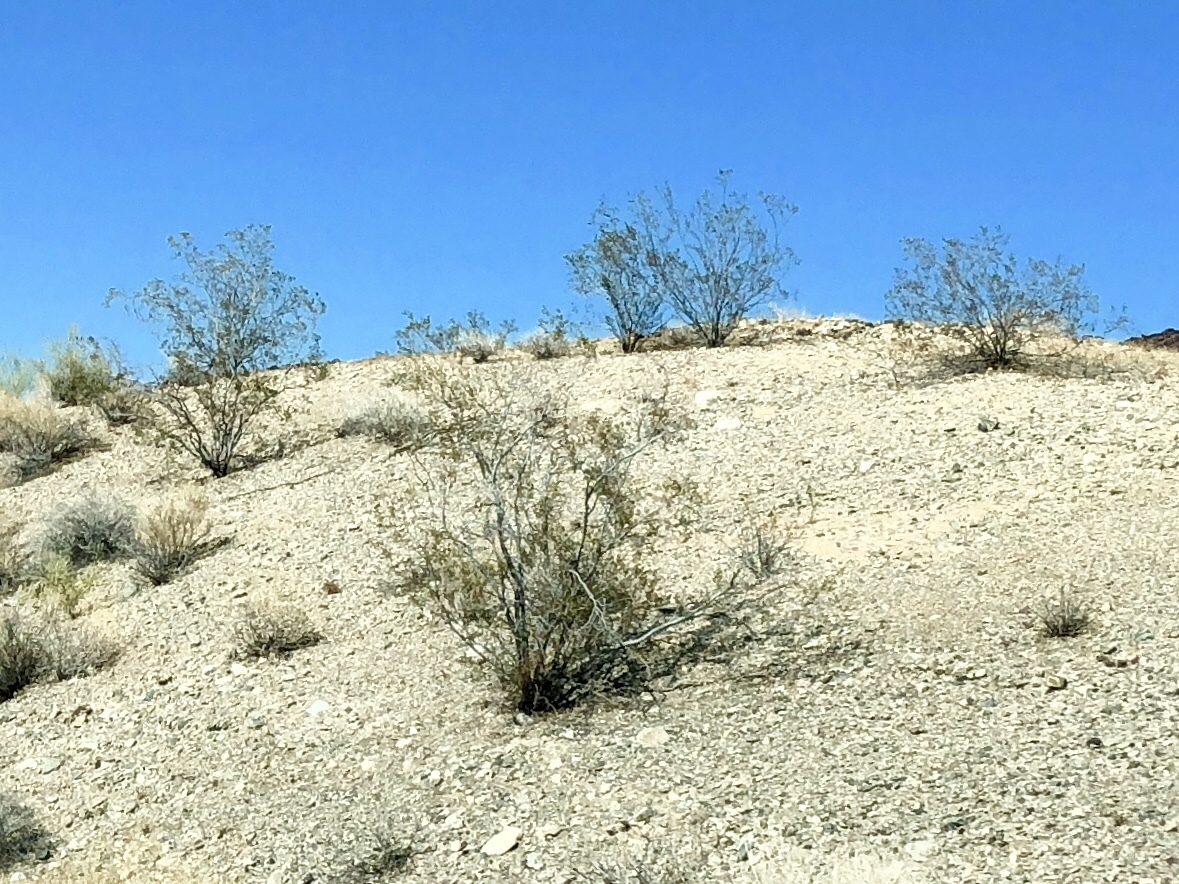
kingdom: Plantae
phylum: Tracheophyta
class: Magnoliopsida
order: Zygophyllales
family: Zygophyllaceae
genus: Larrea
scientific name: Larrea tridentata
